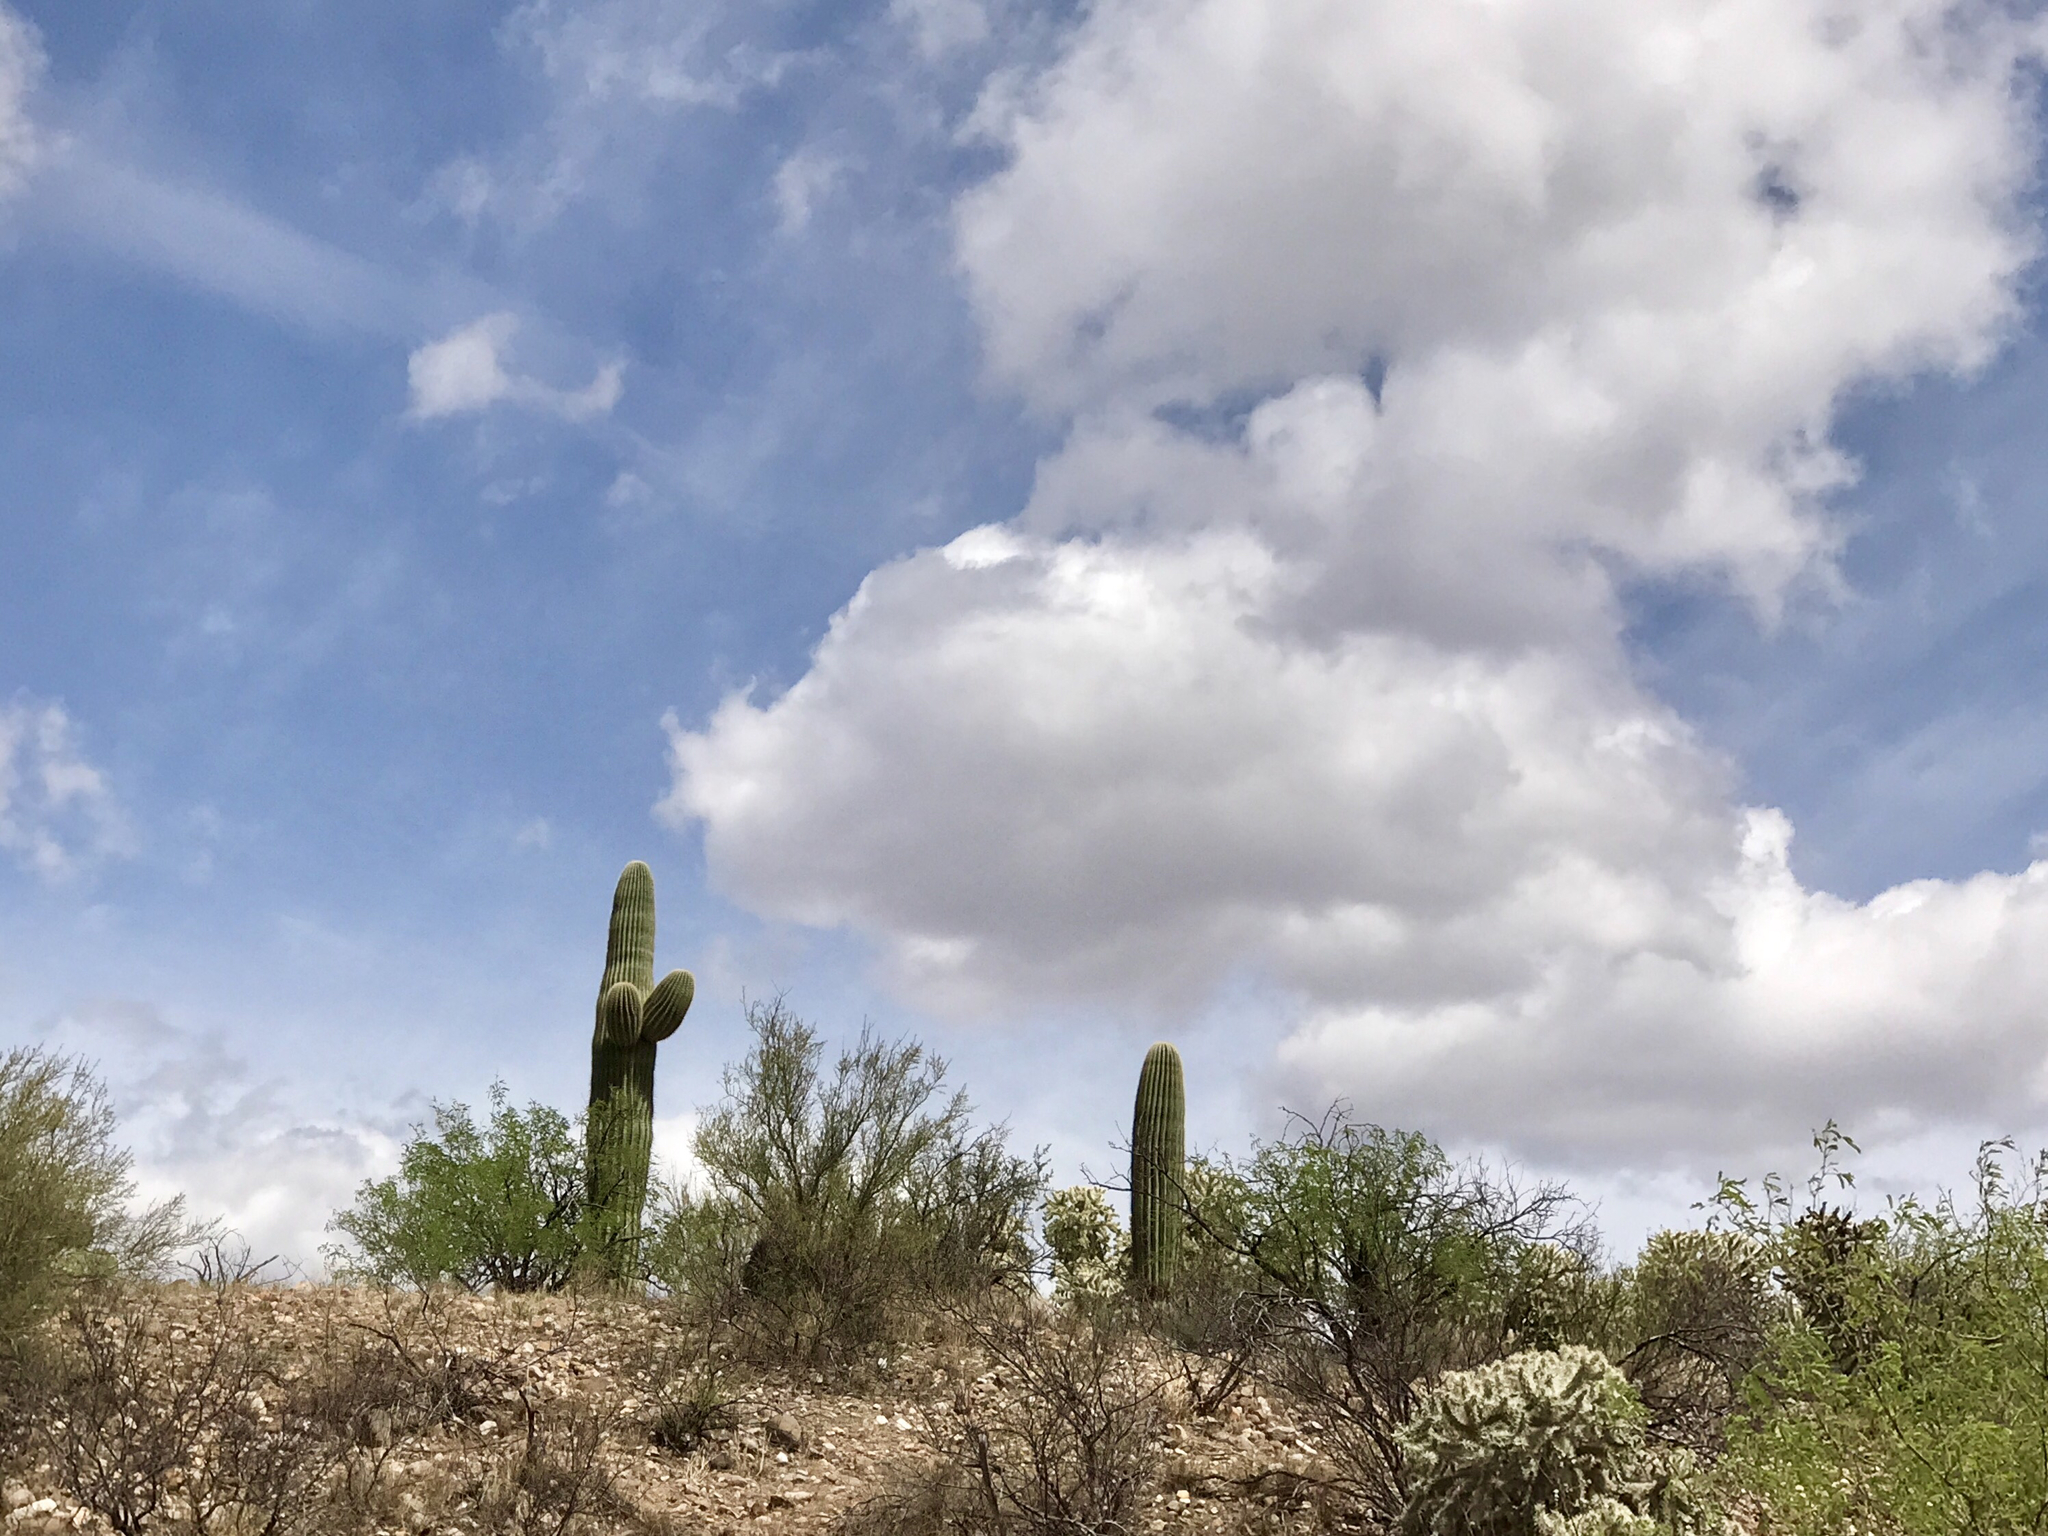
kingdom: Plantae
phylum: Tracheophyta
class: Magnoliopsida
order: Caryophyllales
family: Cactaceae
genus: Carnegiea
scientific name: Carnegiea gigantea
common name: Saguaro
